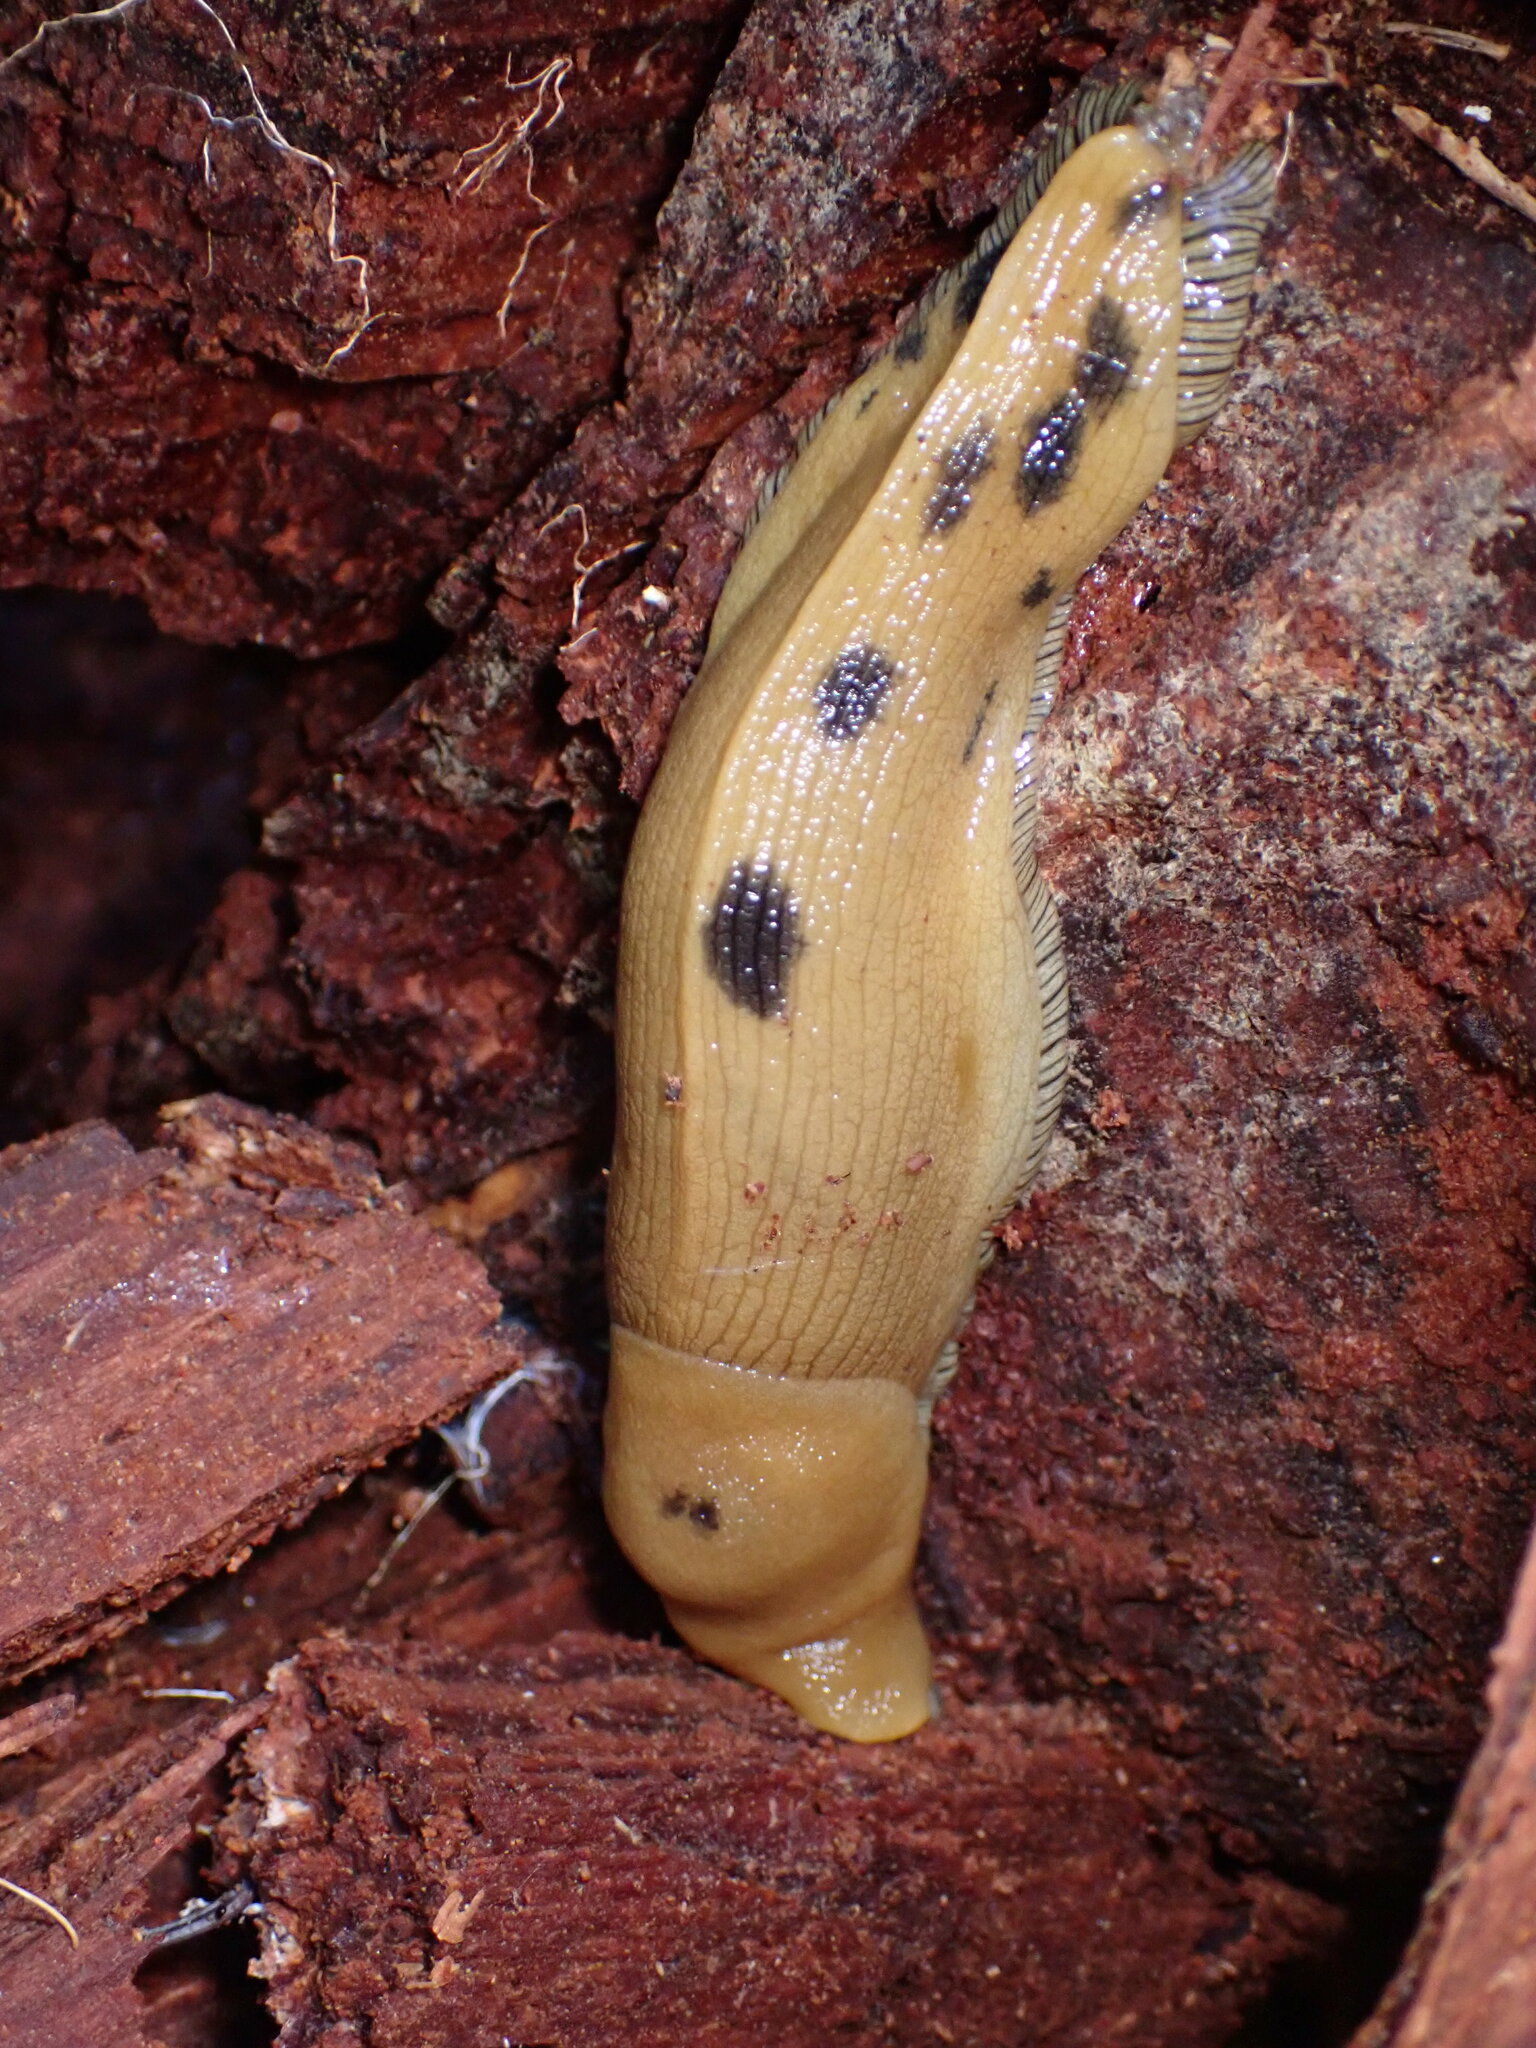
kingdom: Animalia
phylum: Mollusca
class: Gastropoda
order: Stylommatophora
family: Ariolimacidae
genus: Ariolimax
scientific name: Ariolimax buttoni
